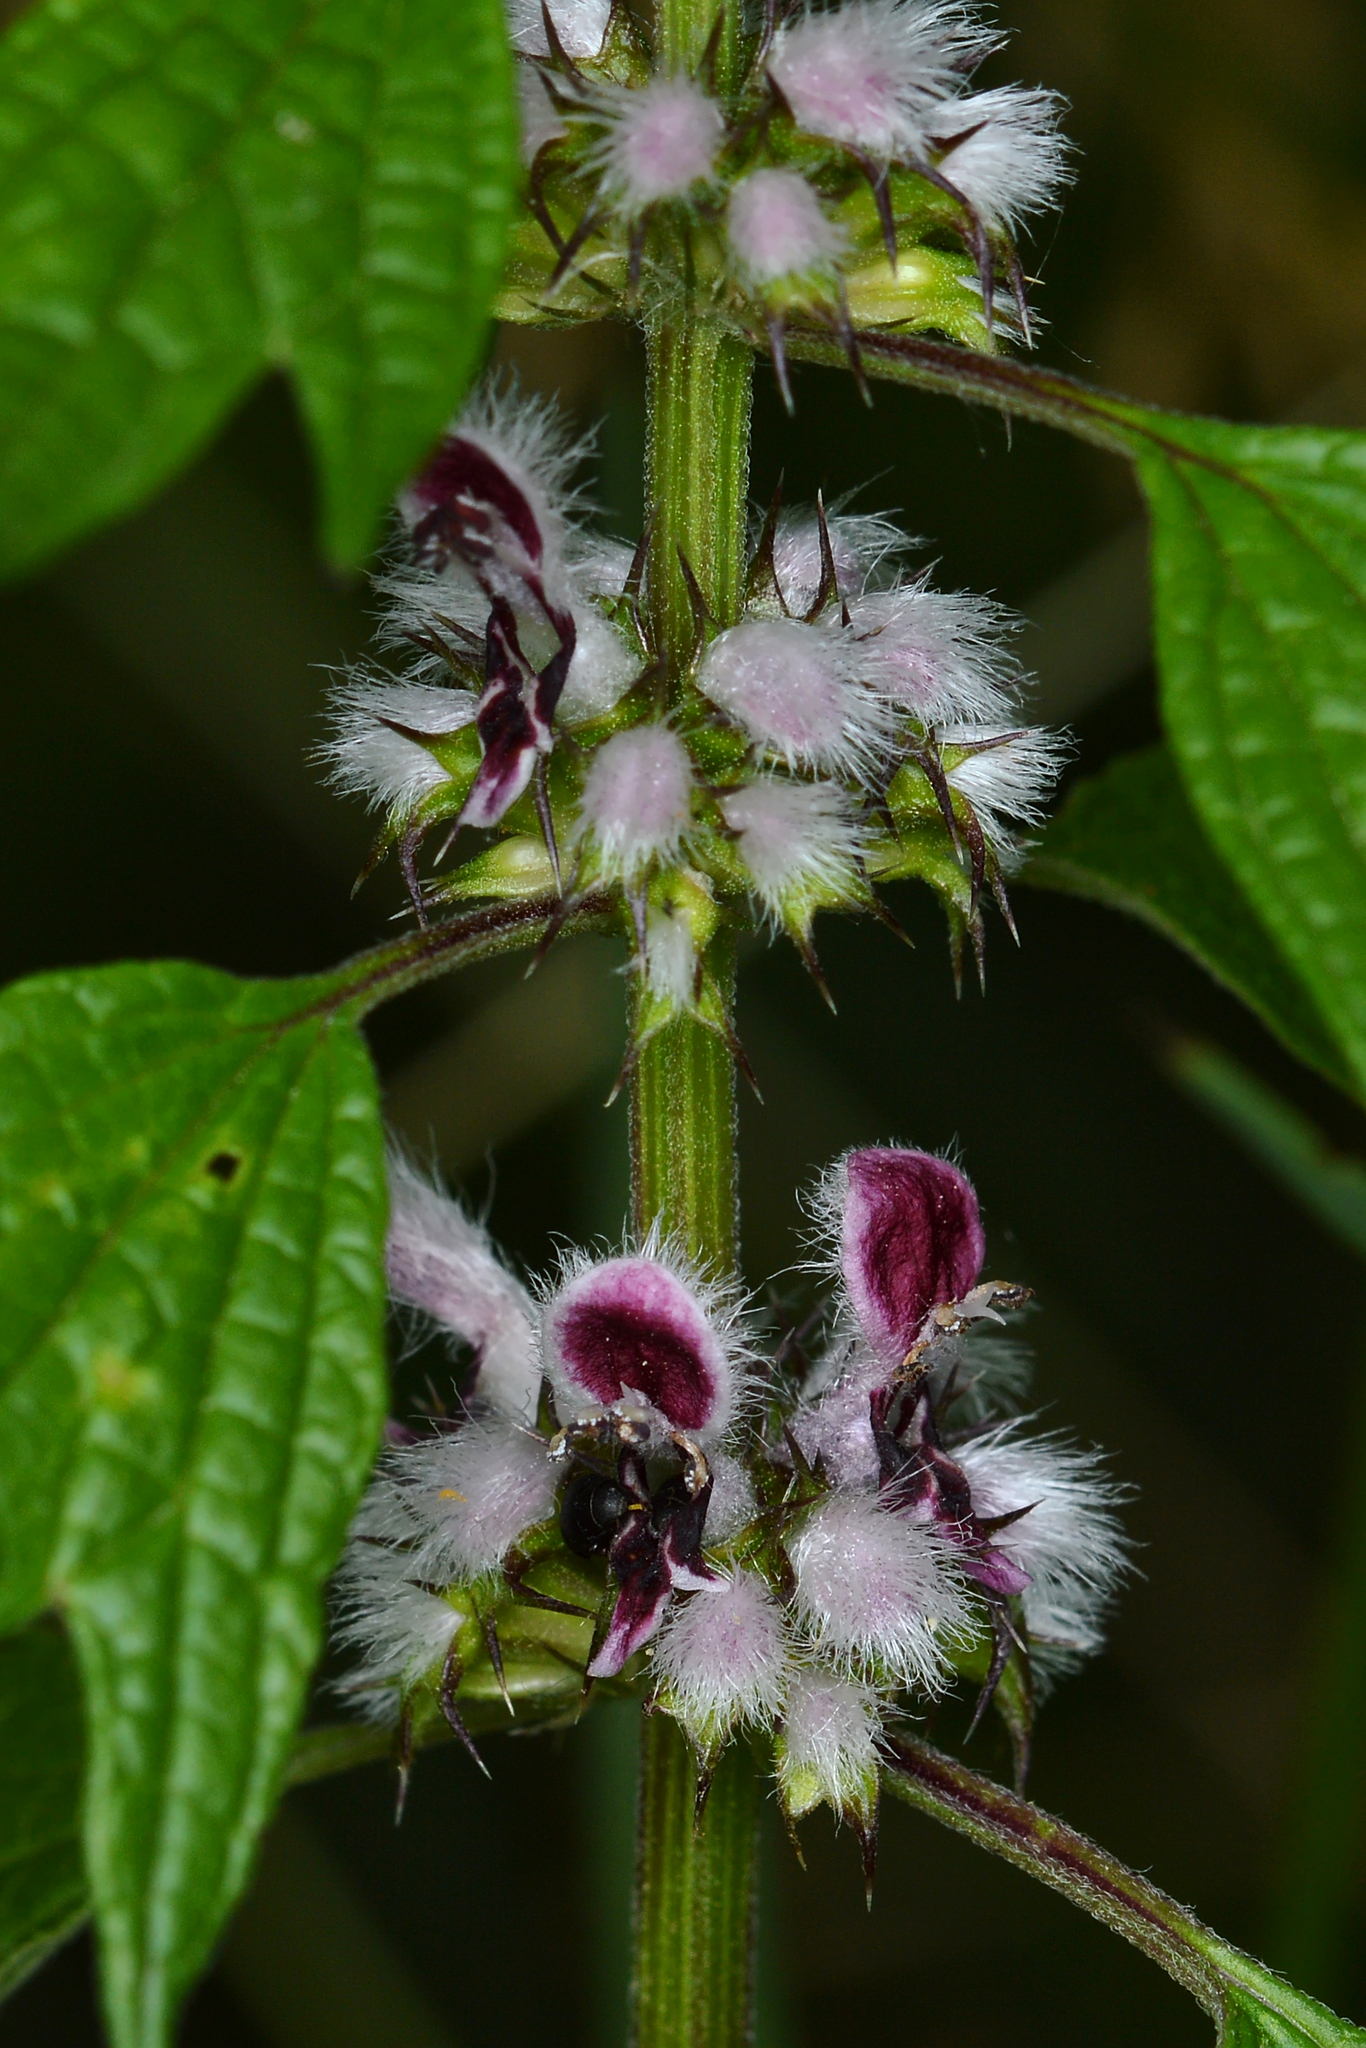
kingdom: Plantae
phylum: Tracheophyta
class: Magnoliopsida
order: Lamiales
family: Lamiaceae
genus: Leonurus
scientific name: Leonurus cardiaca
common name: Motherwort
